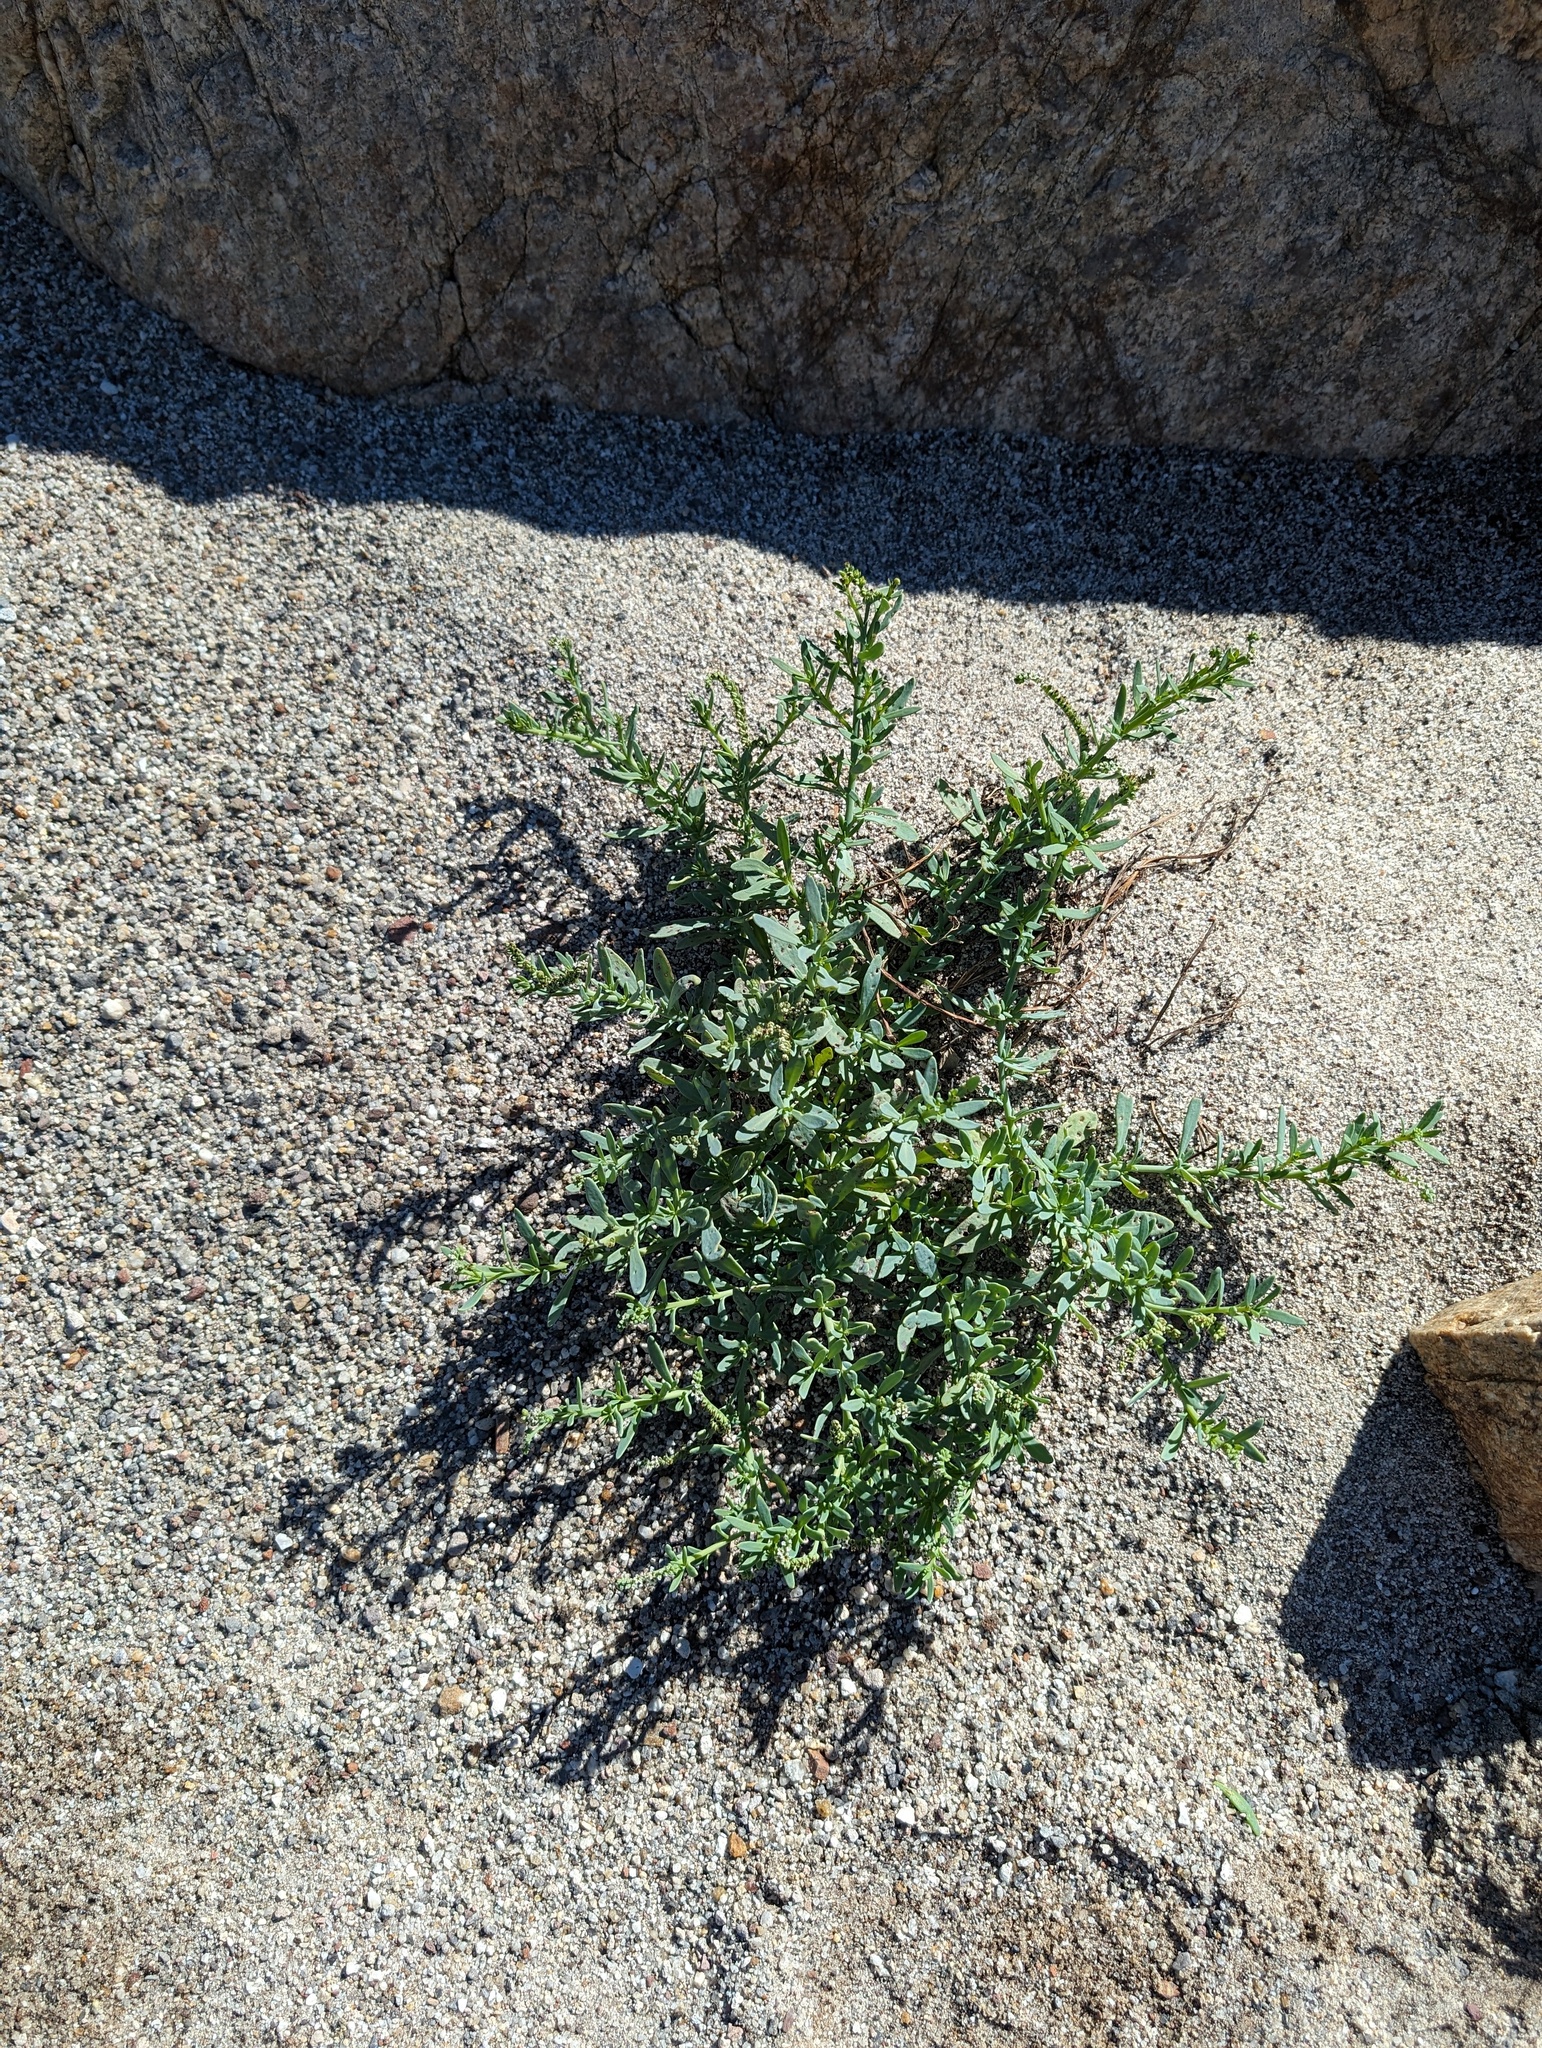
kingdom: Plantae
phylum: Tracheophyta
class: Magnoliopsida
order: Boraginales
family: Heliotropiaceae
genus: Heliotropium
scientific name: Heliotropium curassavicum
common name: Seaside heliotrope
